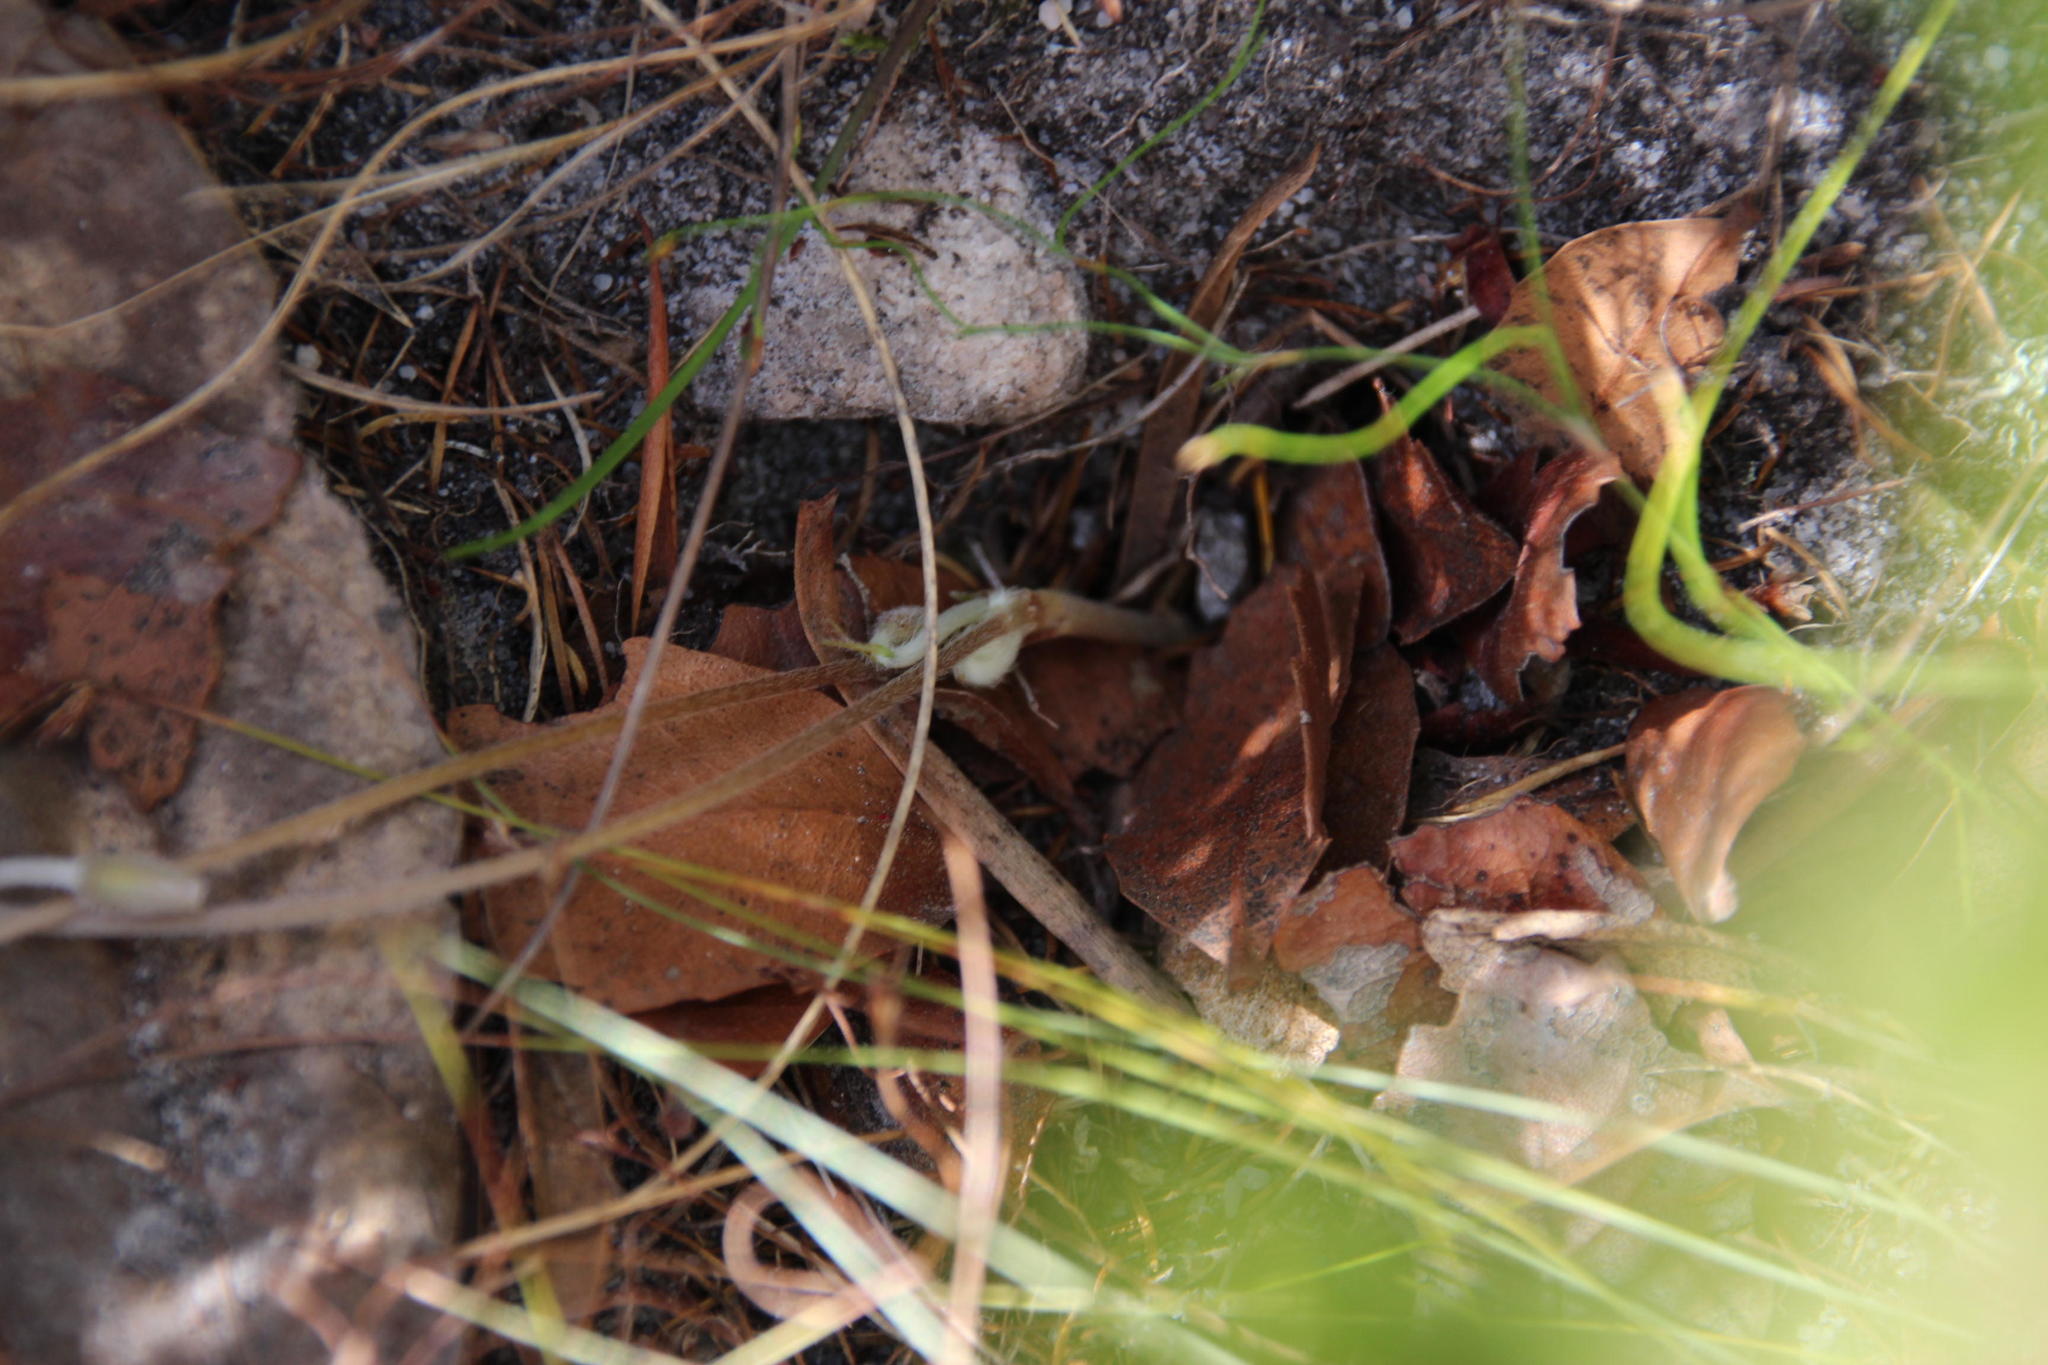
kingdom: Plantae
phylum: Tracheophyta
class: Magnoliopsida
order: Oxalidales
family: Oxalidaceae
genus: Oxalis
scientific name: Oxalis truncatula
